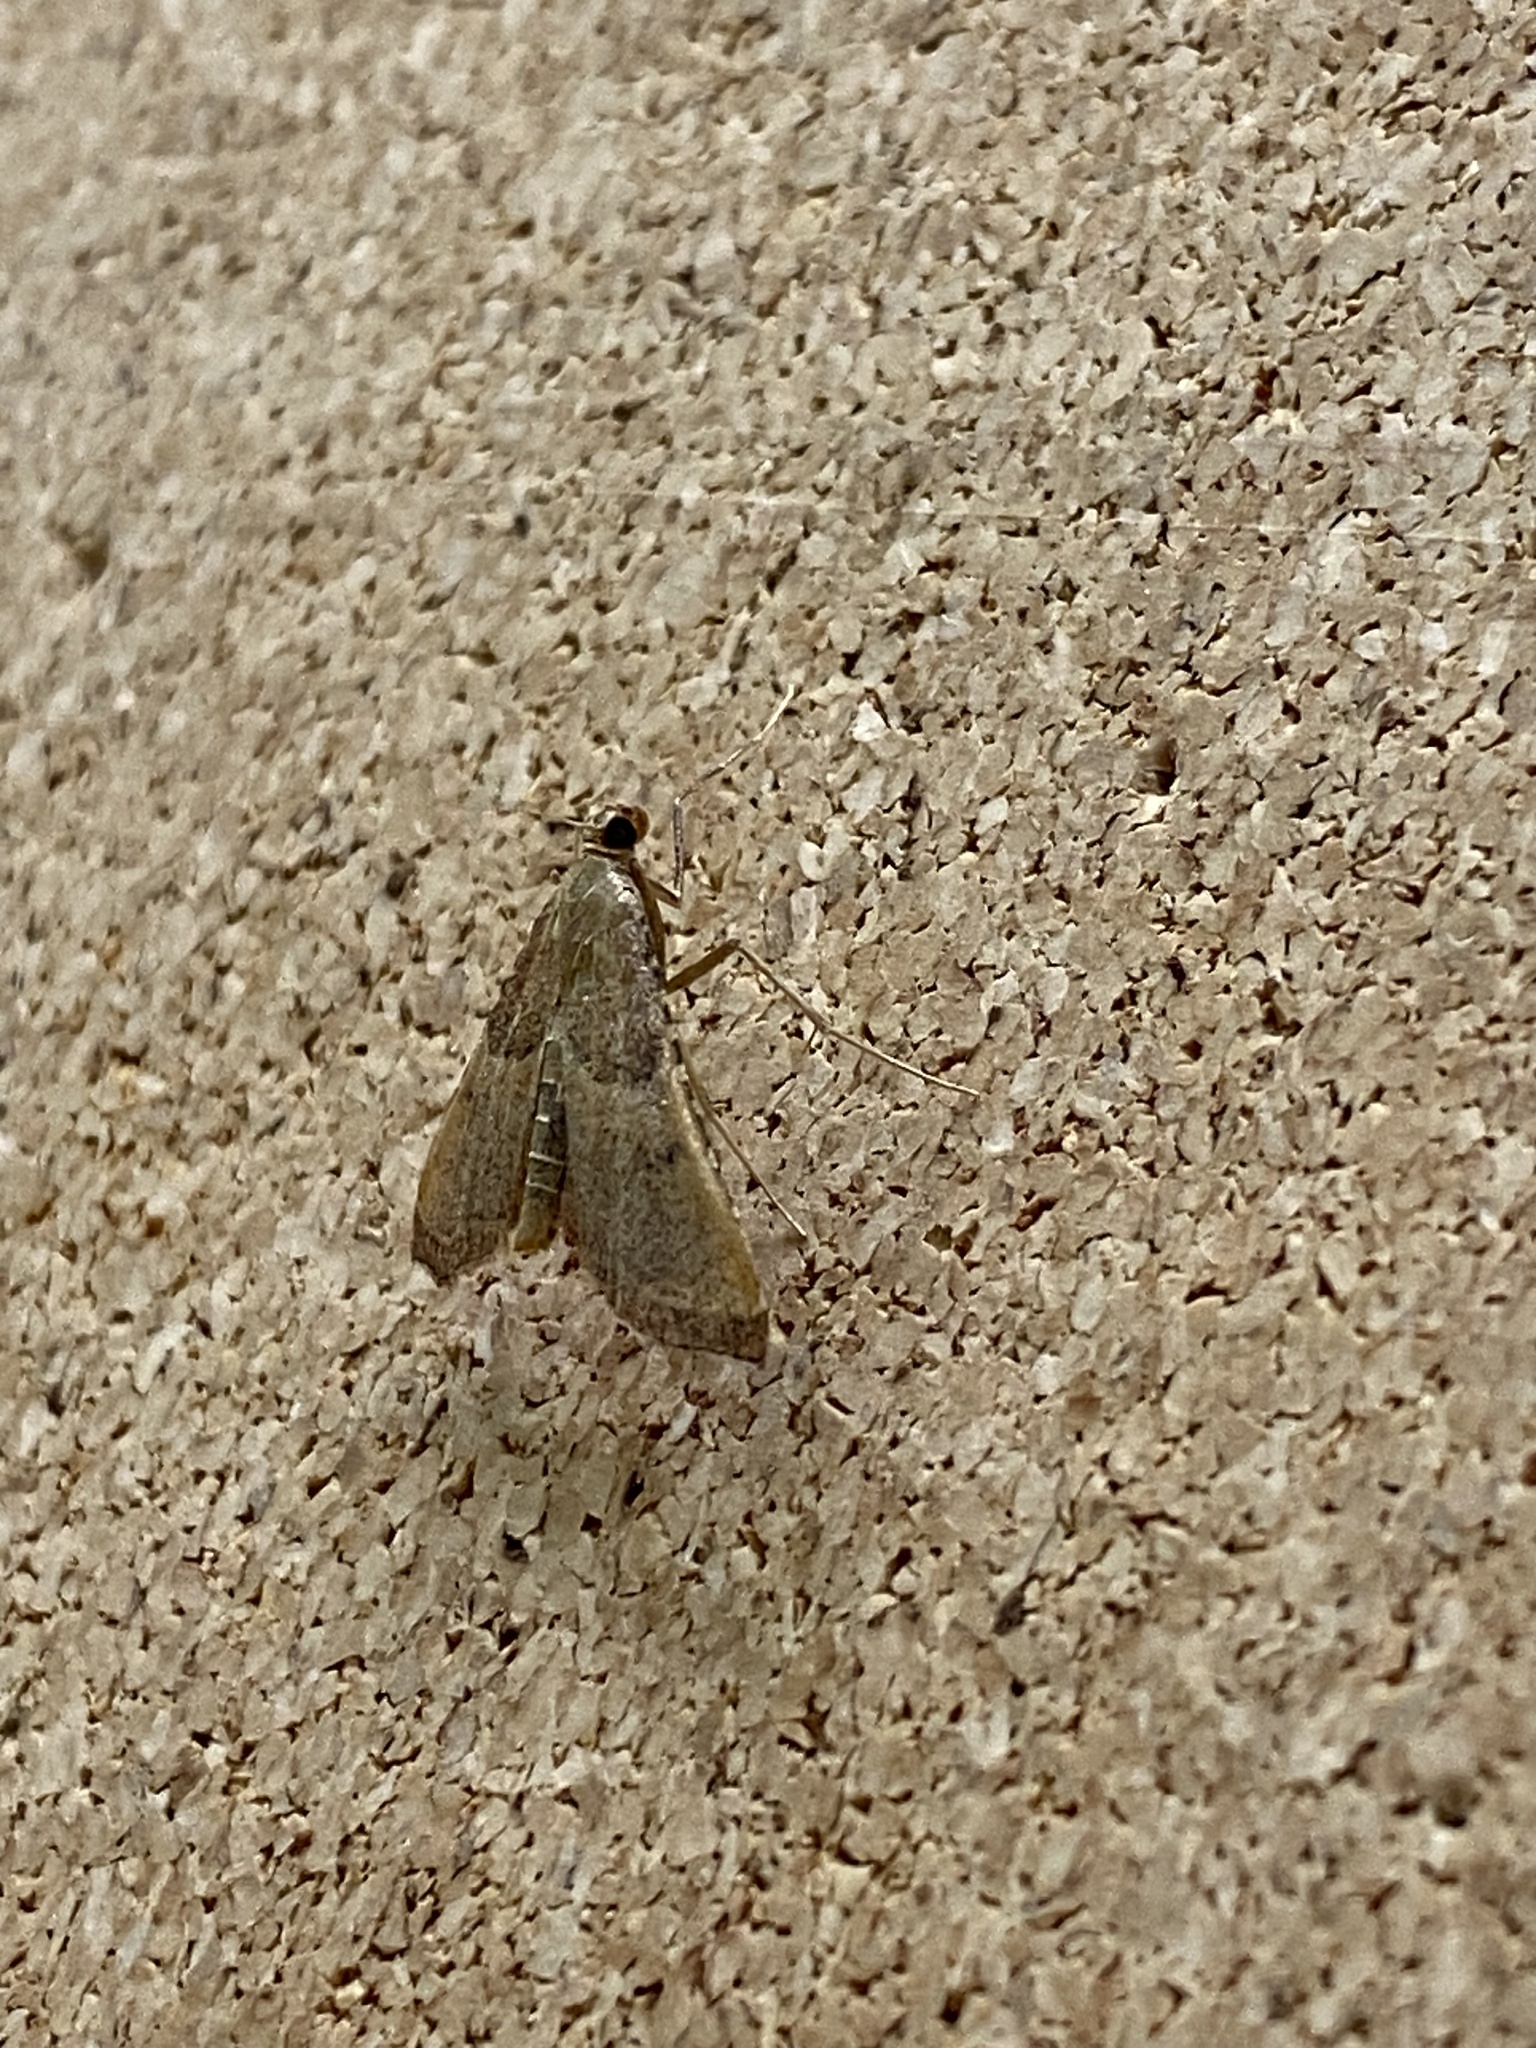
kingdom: Animalia
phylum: Arthropoda
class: Insecta
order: Lepidoptera
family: Pyralidae
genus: Endotricha
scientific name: Endotricha flammealis
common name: Rosy tabby
